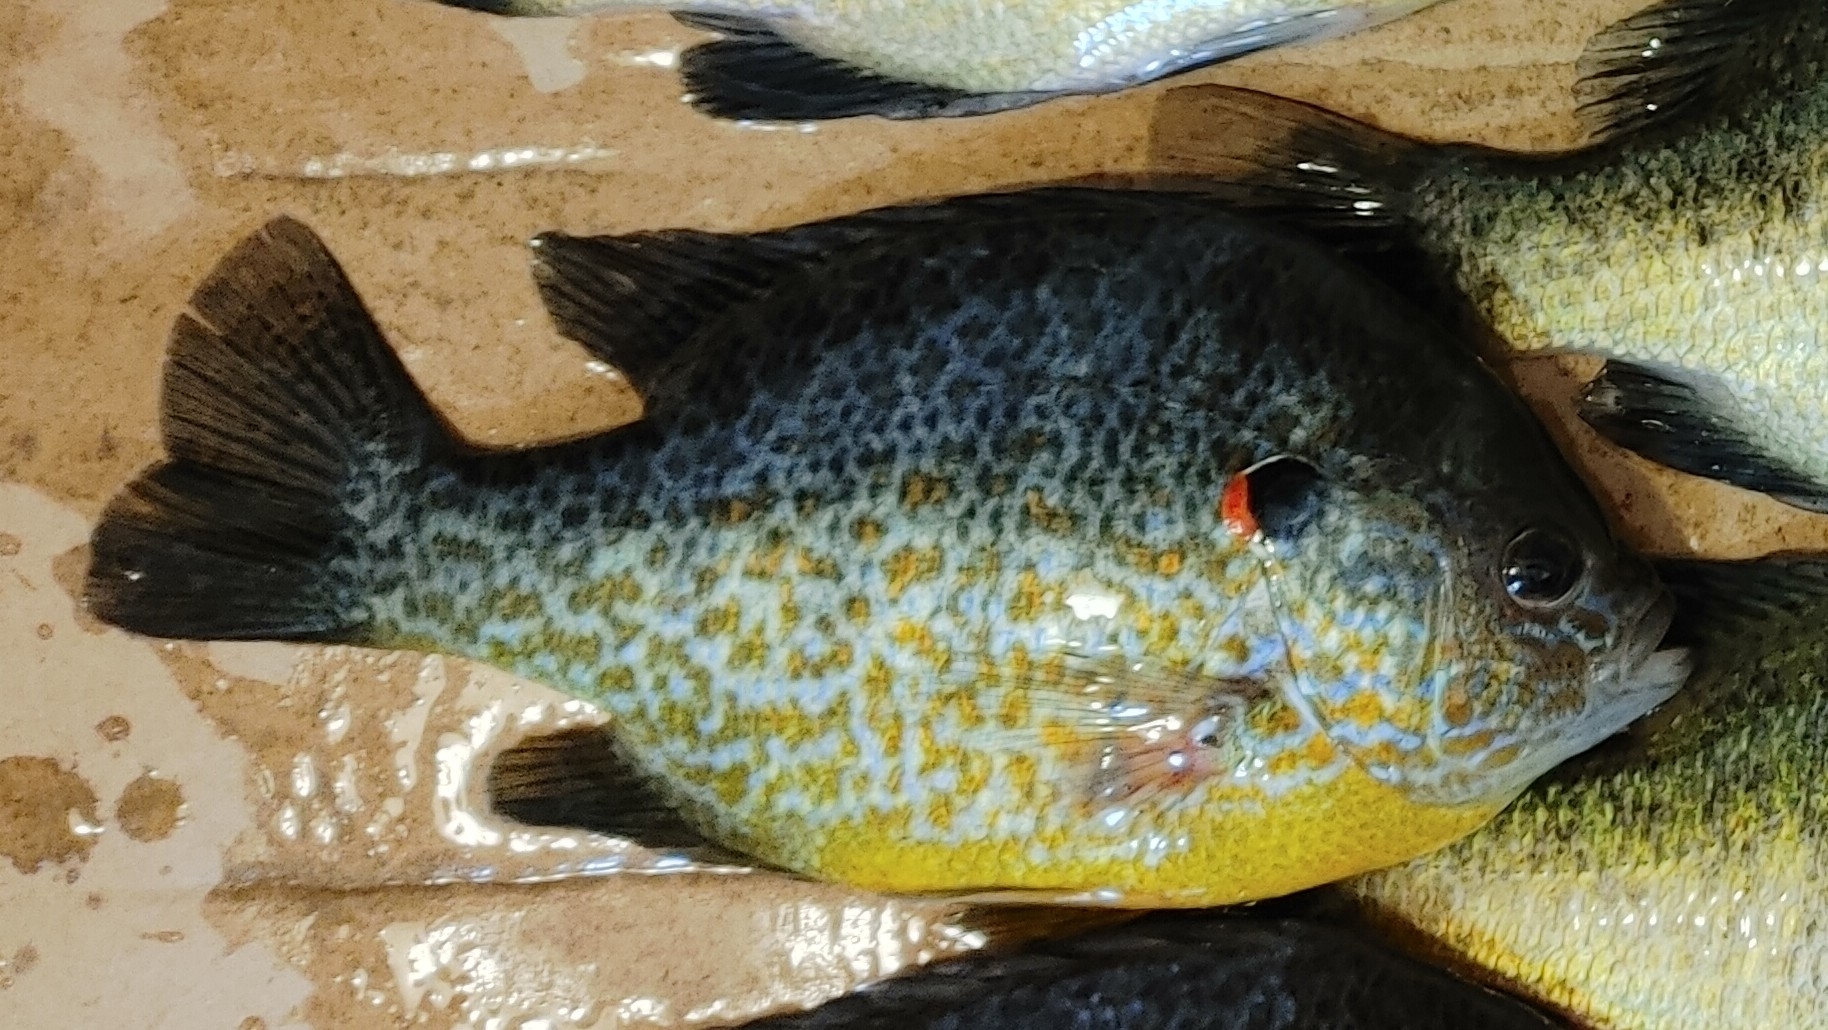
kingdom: Animalia
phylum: Chordata
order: Perciformes
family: Centrarchidae
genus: Lepomis
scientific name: Lepomis gibbosus
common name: Pumpkinseed
